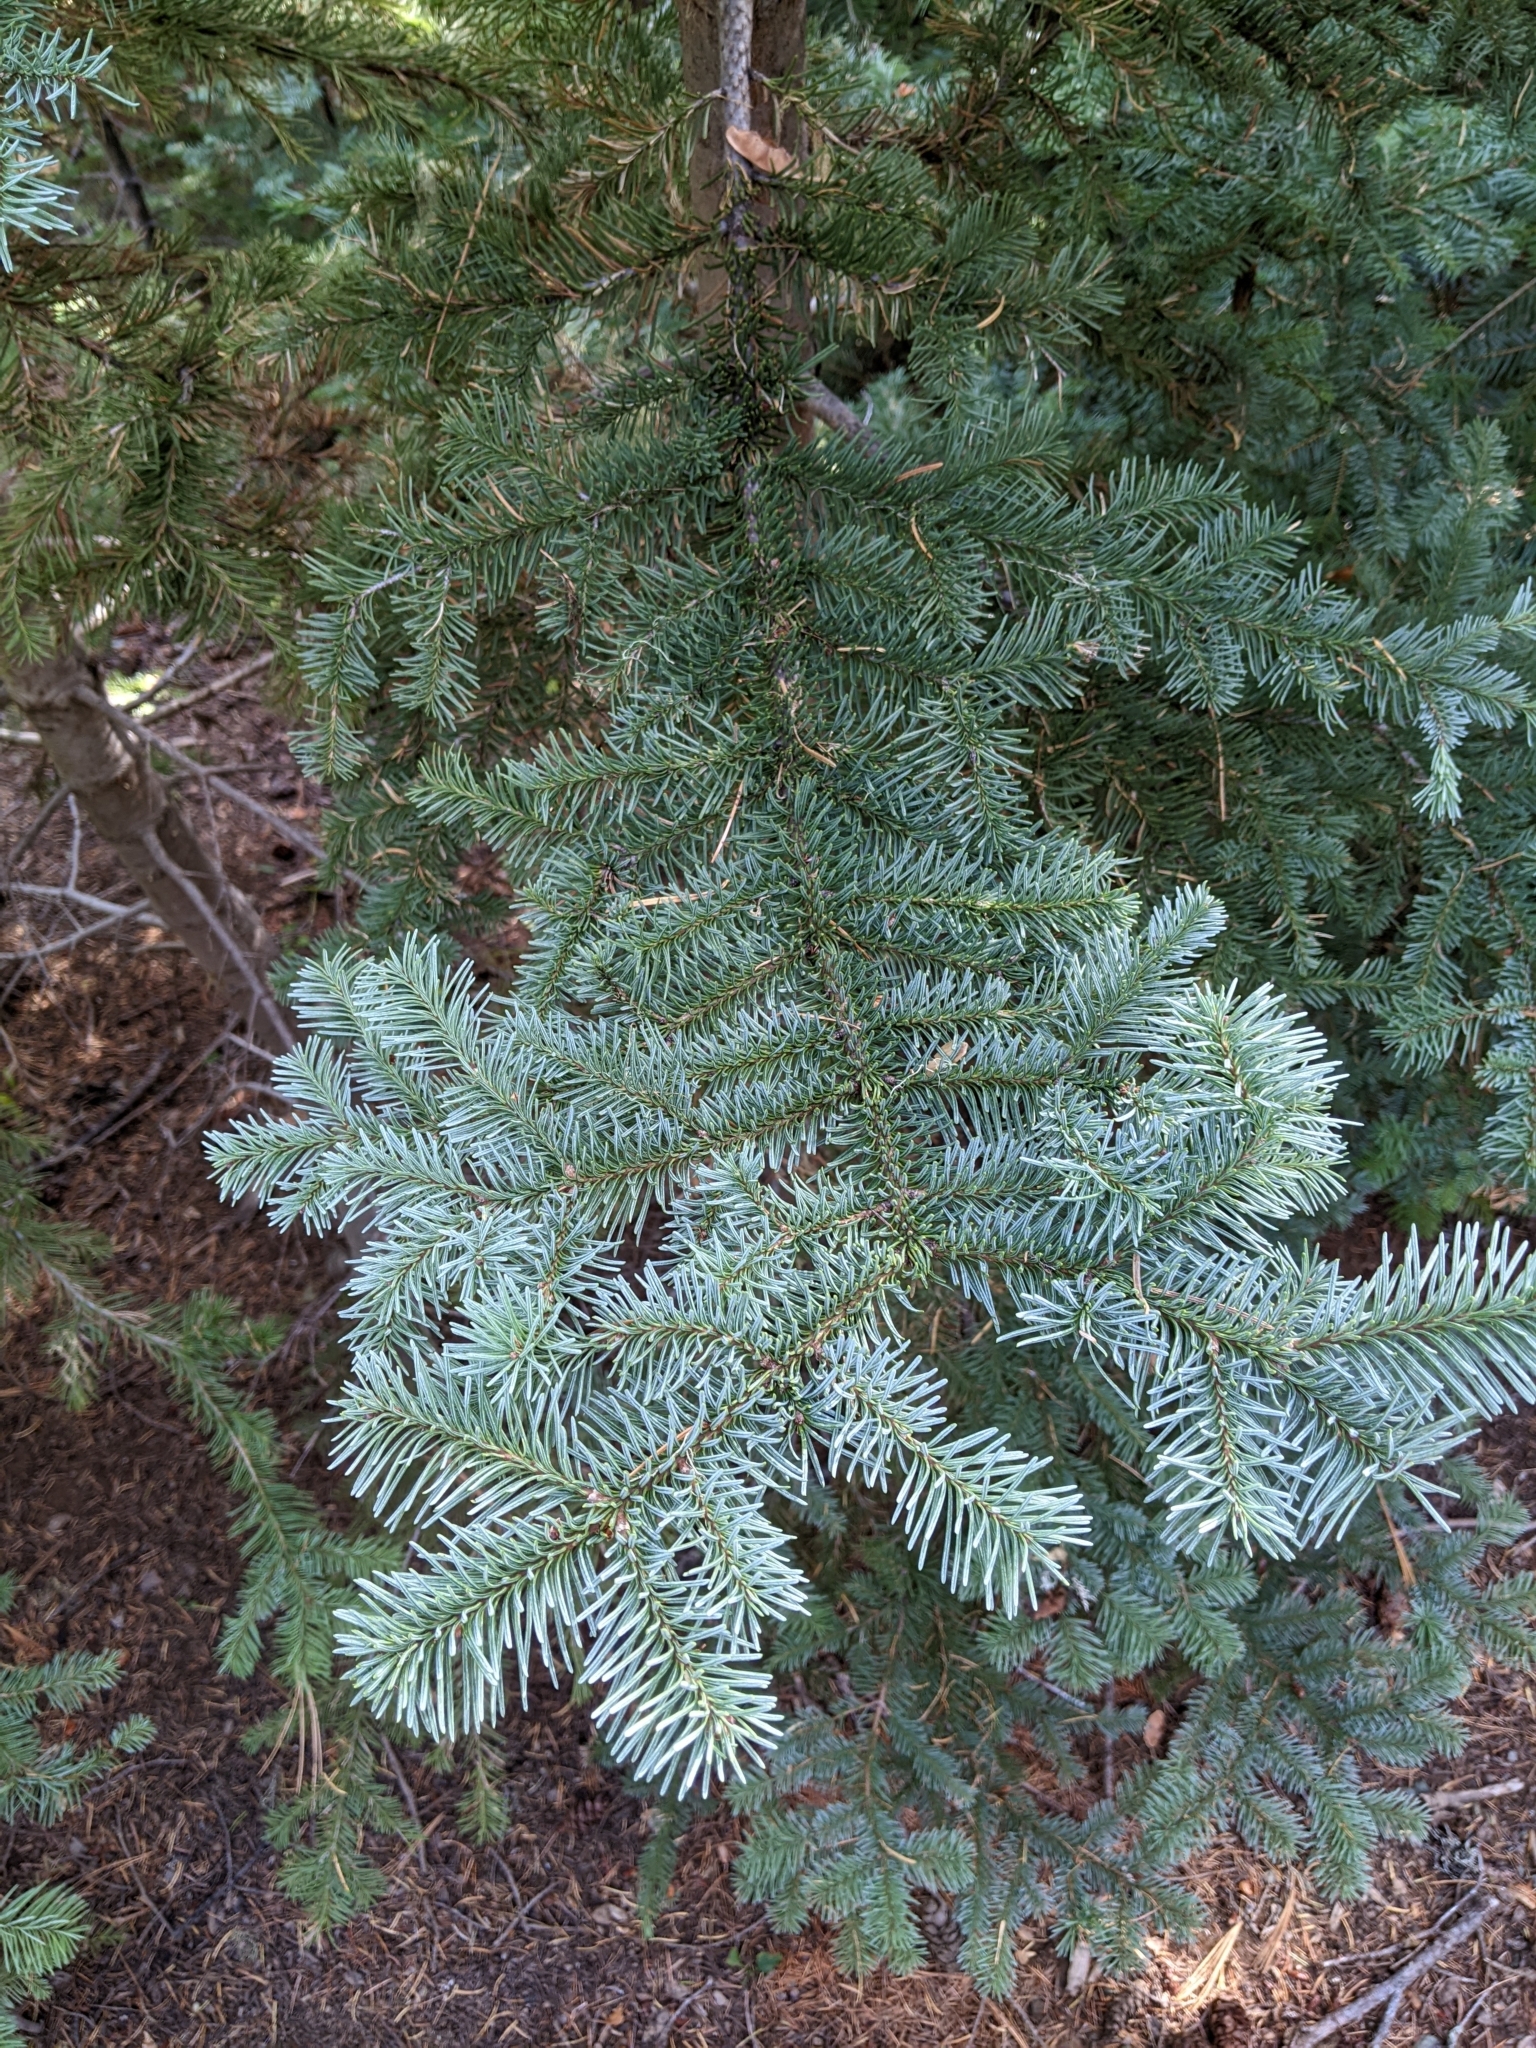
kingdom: Plantae
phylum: Tracheophyta
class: Pinopsida
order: Pinales
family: Pinaceae
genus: Abies
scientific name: Abies magnifica bis
